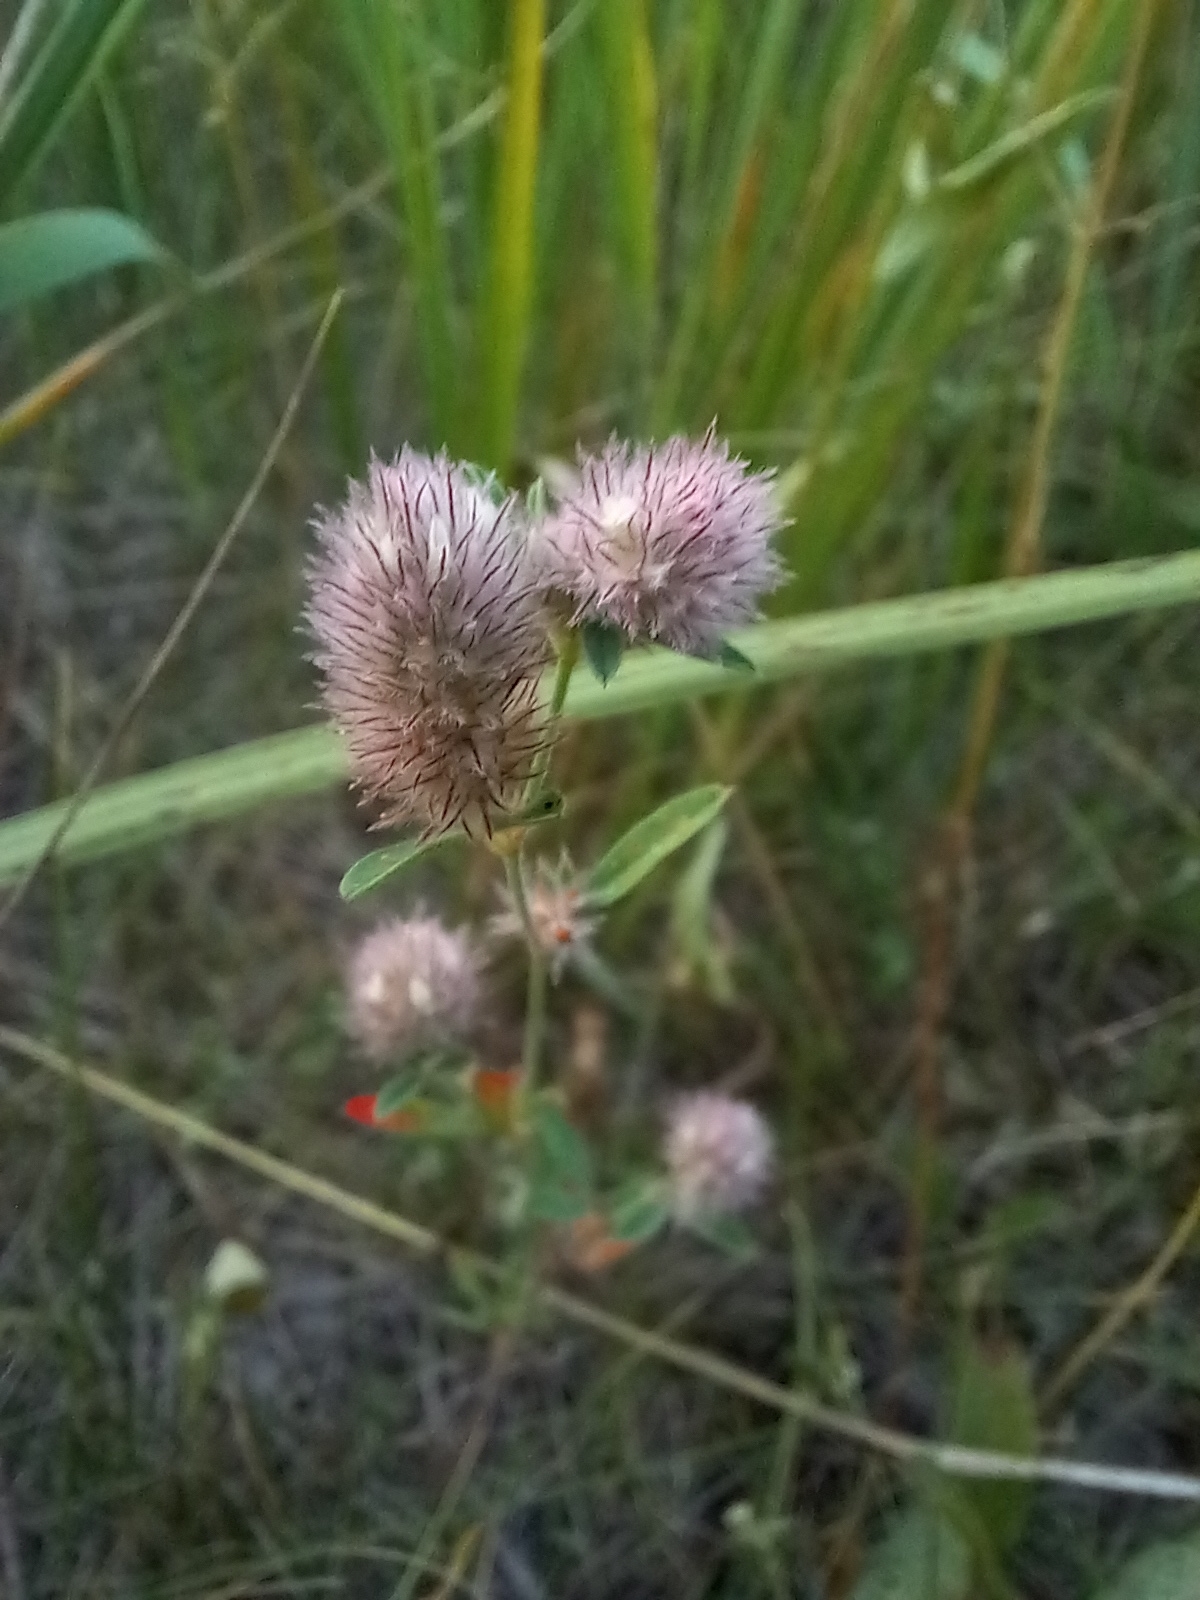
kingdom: Plantae
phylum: Tracheophyta
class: Magnoliopsida
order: Fabales
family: Fabaceae
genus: Trifolium
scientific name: Trifolium arvense
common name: Hare's-foot clover
